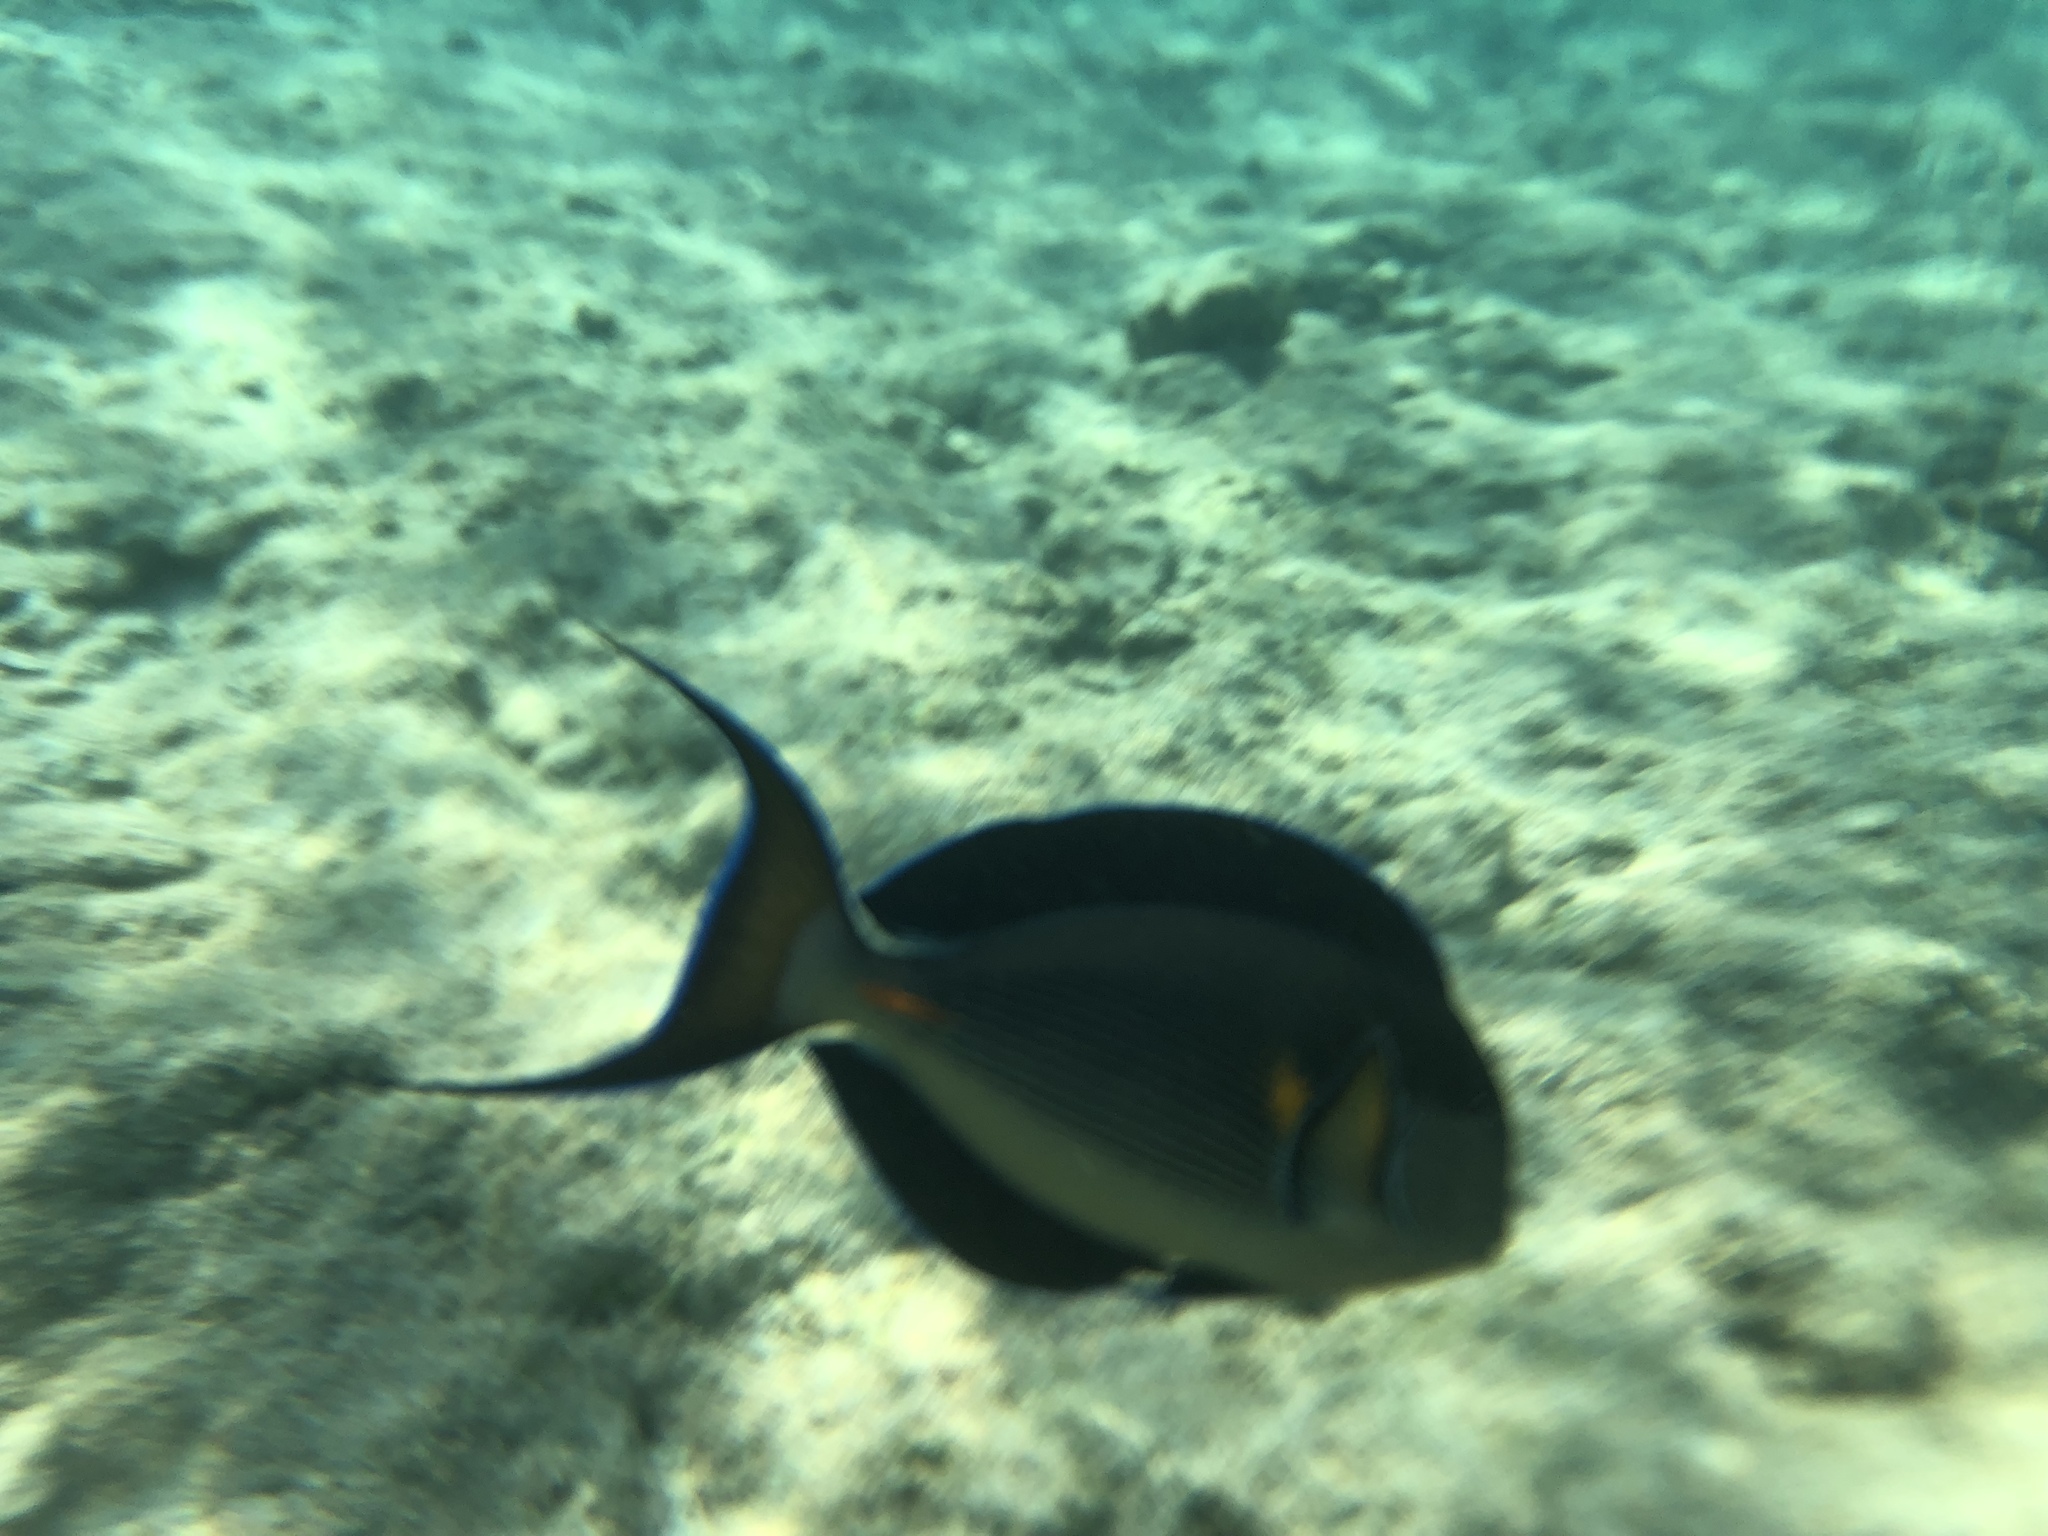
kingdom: Animalia
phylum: Chordata
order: Perciformes
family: Acanthuridae
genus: Acanthurus
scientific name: Acanthurus sohal
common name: Red sea surgeonfish
